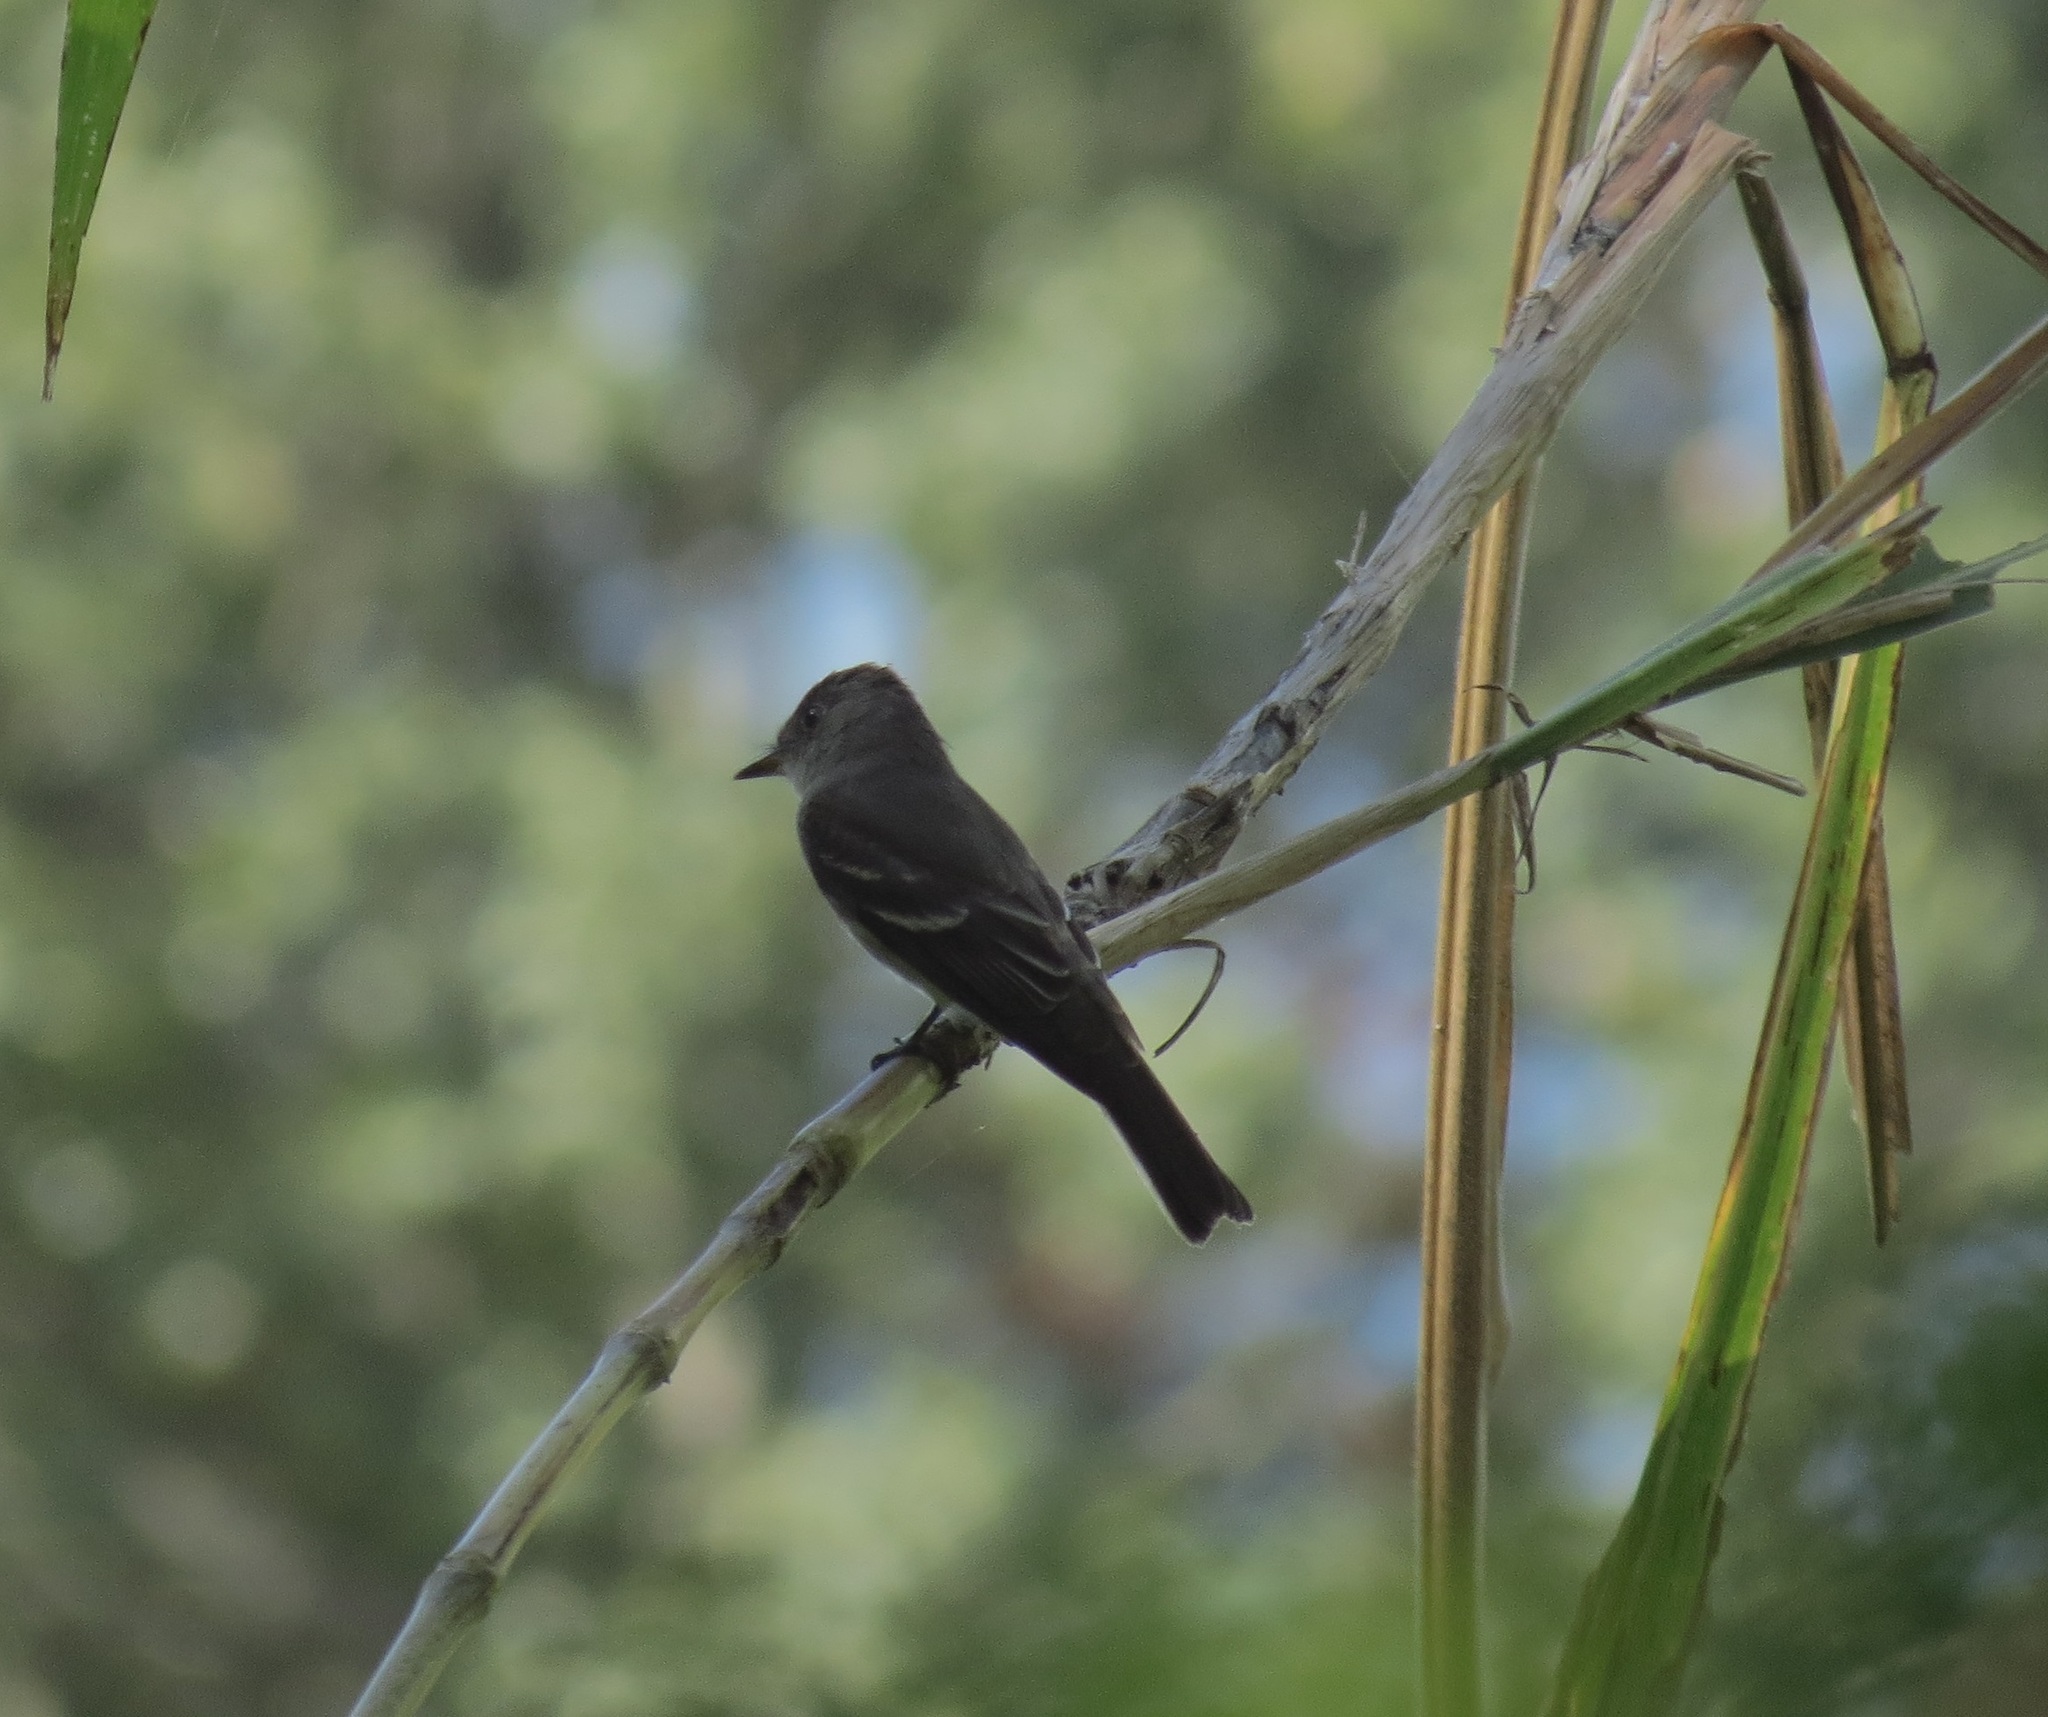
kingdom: Animalia
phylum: Chordata
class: Aves
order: Passeriformes
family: Tyrannidae
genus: Contopus
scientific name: Contopus virens
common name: Eastern wood-pewee
